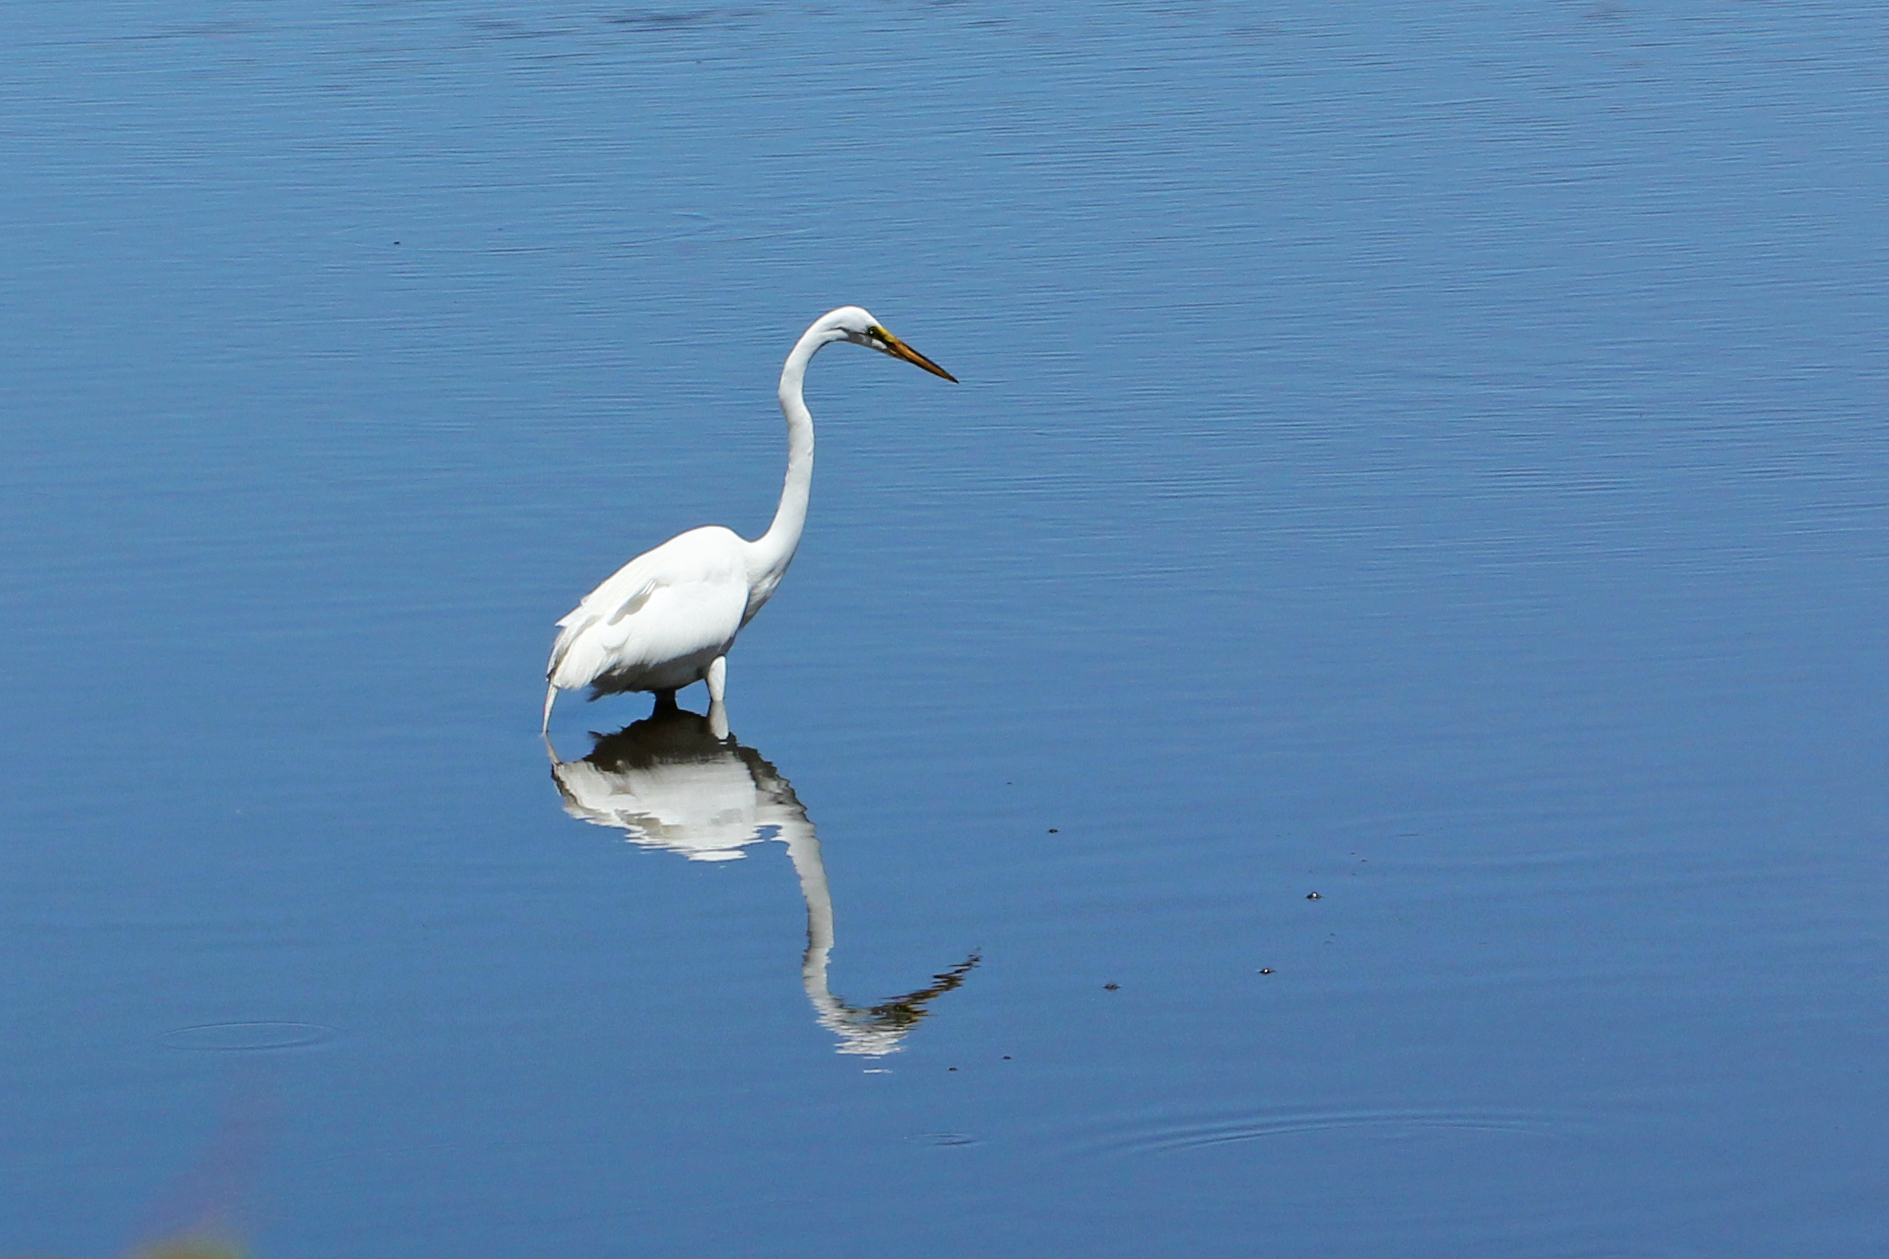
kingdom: Animalia
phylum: Chordata
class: Aves
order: Pelecaniformes
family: Ardeidae
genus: Ardea
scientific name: Ardea alba
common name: Great egret
